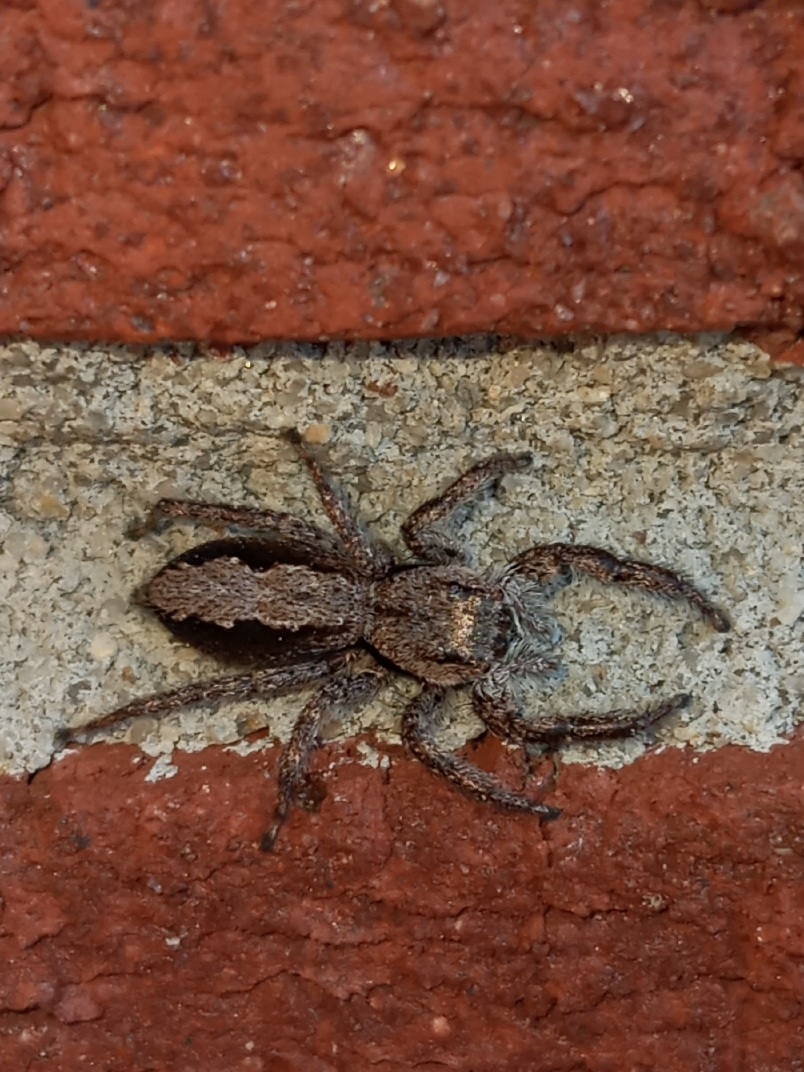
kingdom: Animalia
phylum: Arthropoda
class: Arachnida
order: Araneae
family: Salticidae
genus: Platycryptus
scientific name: Platycryptus undatus
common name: Tan jumping spider
